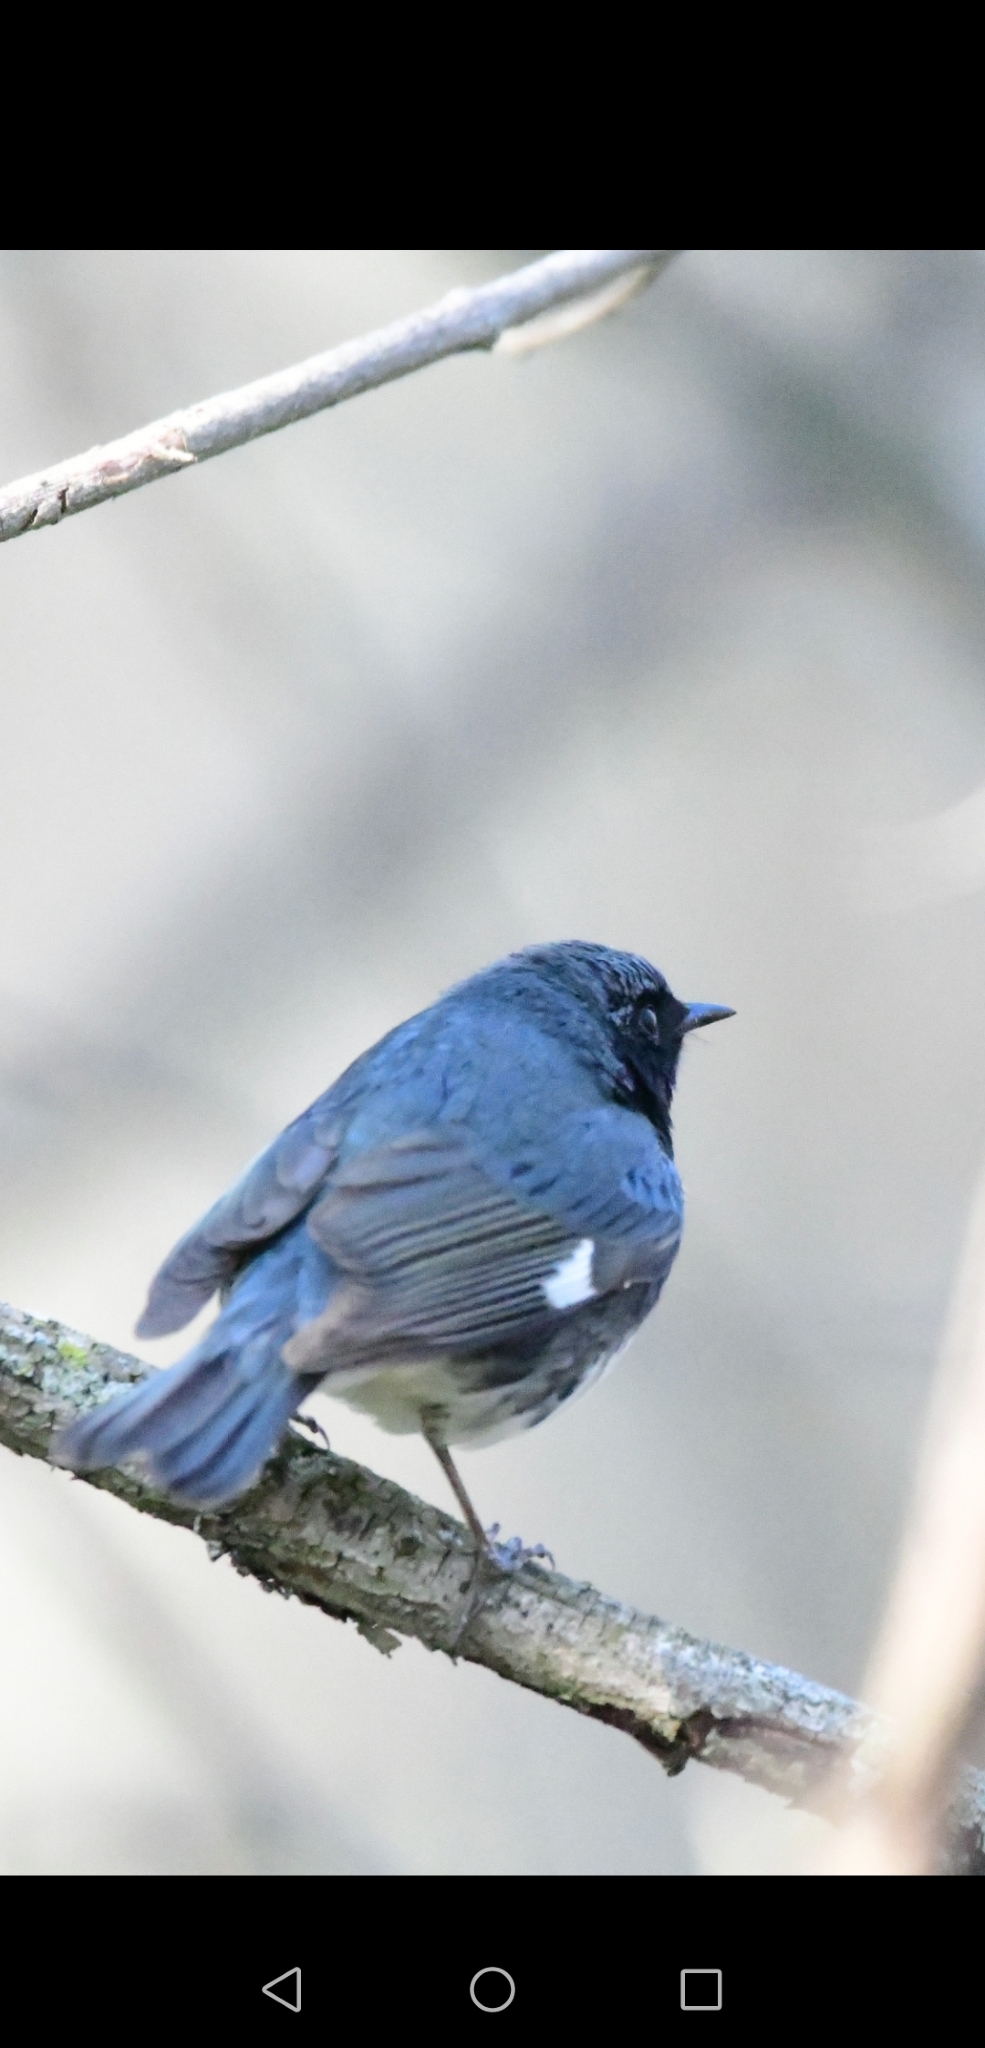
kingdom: Animalia
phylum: Chordata
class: Aves
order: Passeriformes
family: Parulidae
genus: Setophaga
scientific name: Setophaga caerulescens
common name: Black-throated blue warbler
